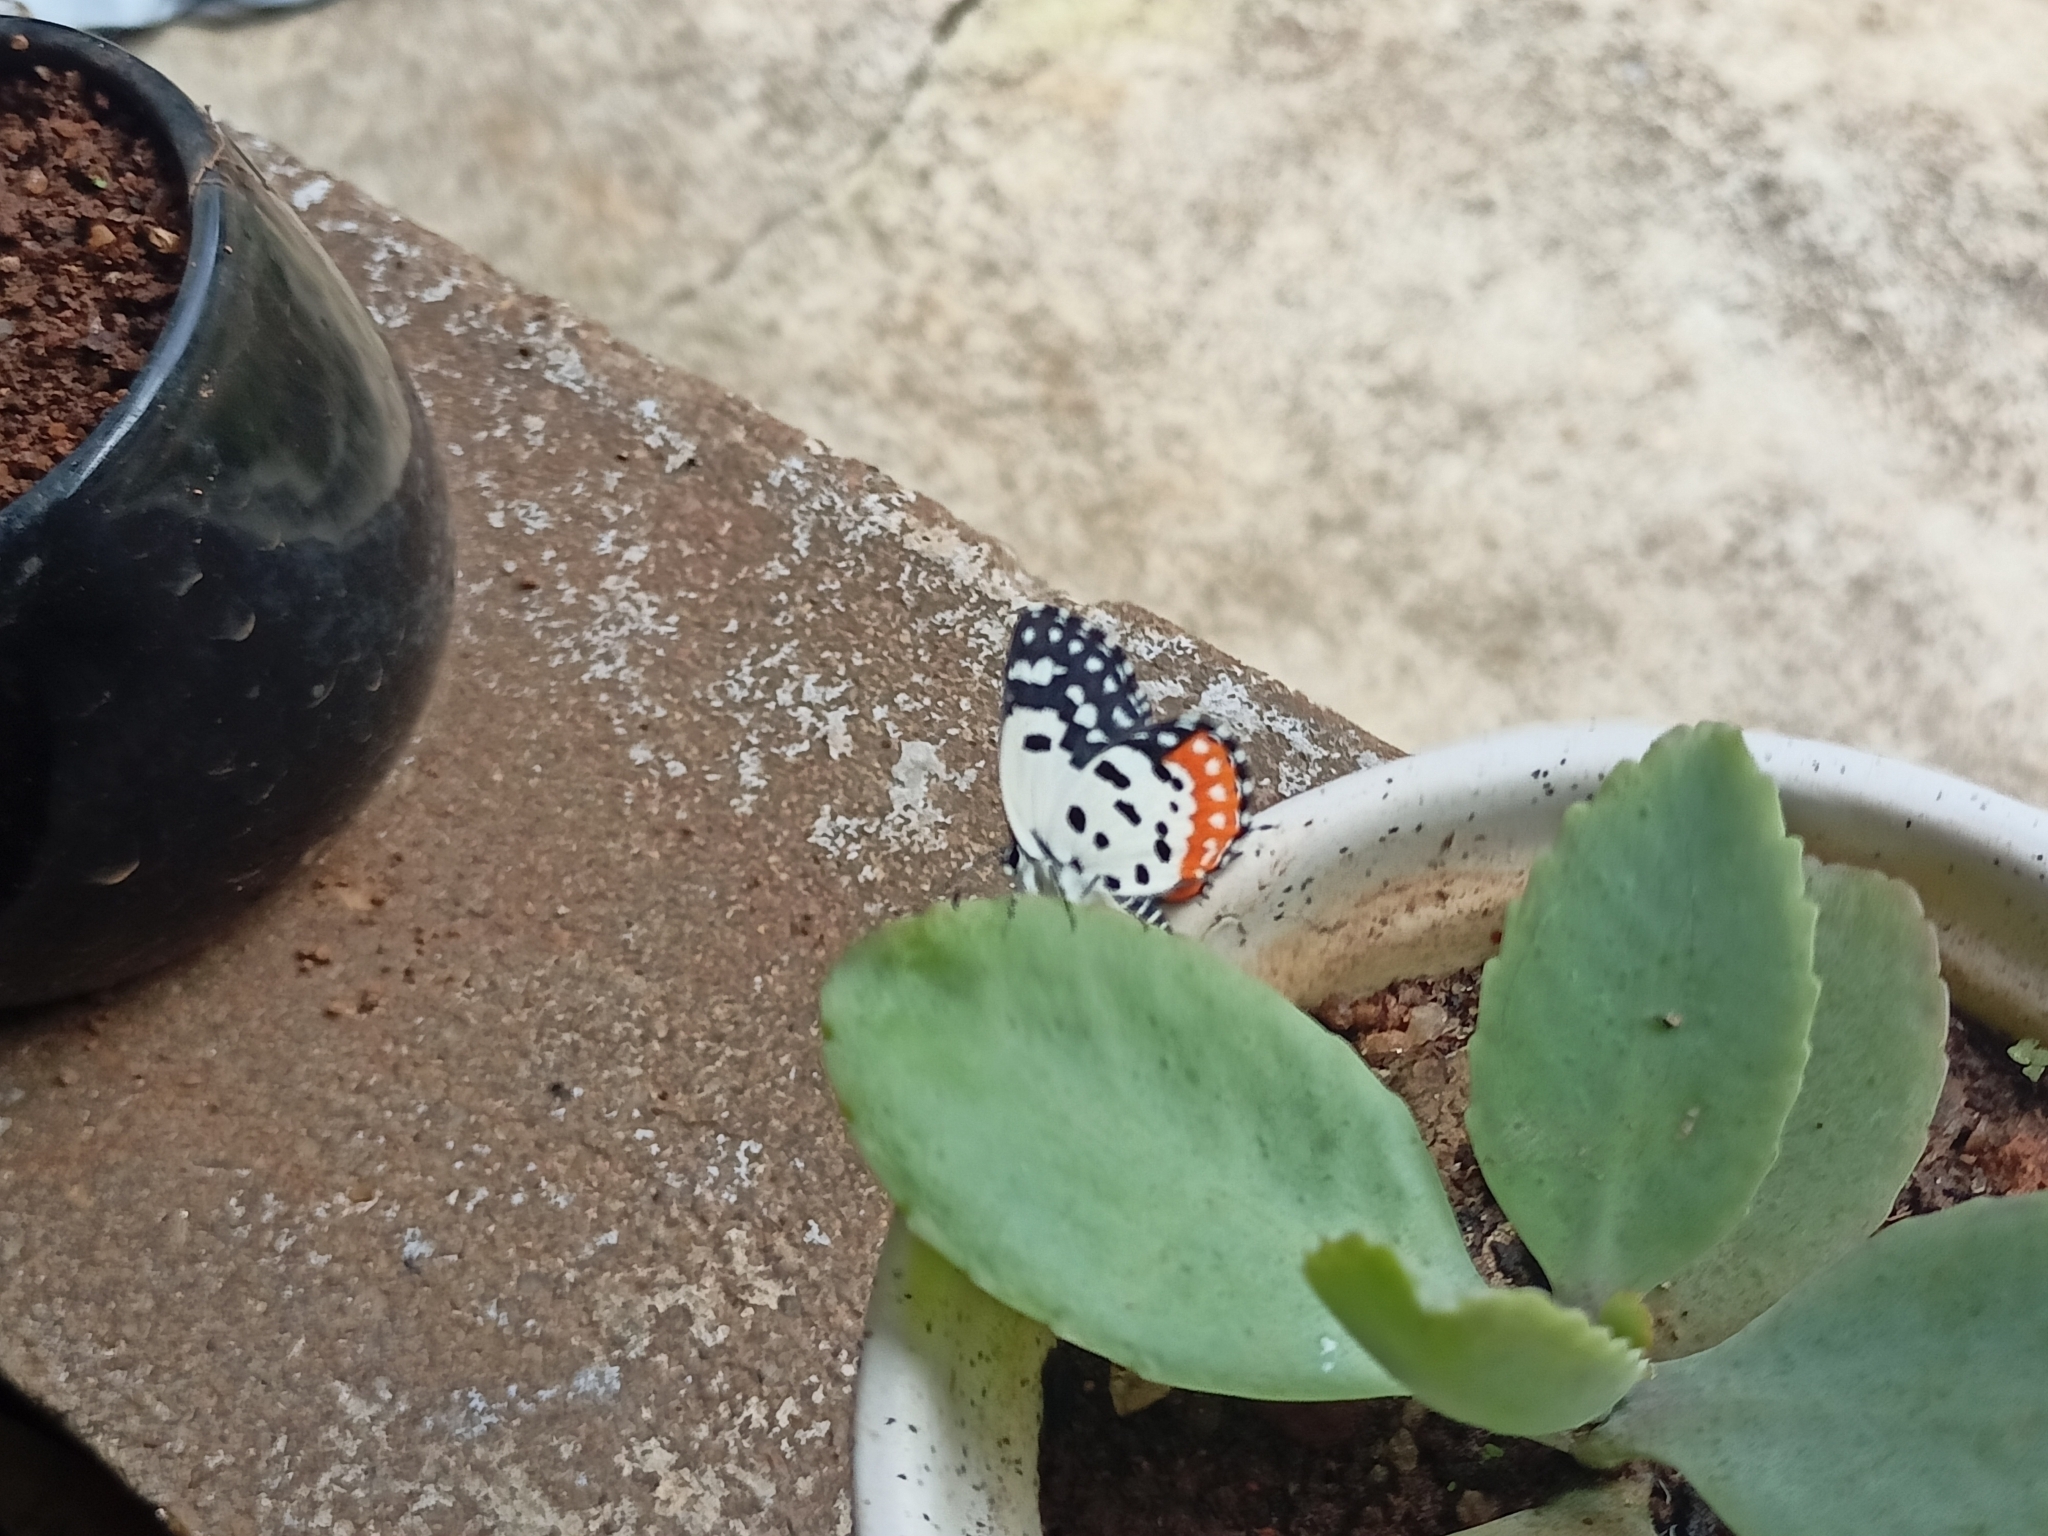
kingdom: Animalia
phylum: Arthropoda
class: Insecta
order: Lepidoptera
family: Lycaenidae
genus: Talicada
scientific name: Talicada nyseus
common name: Red pierrot
